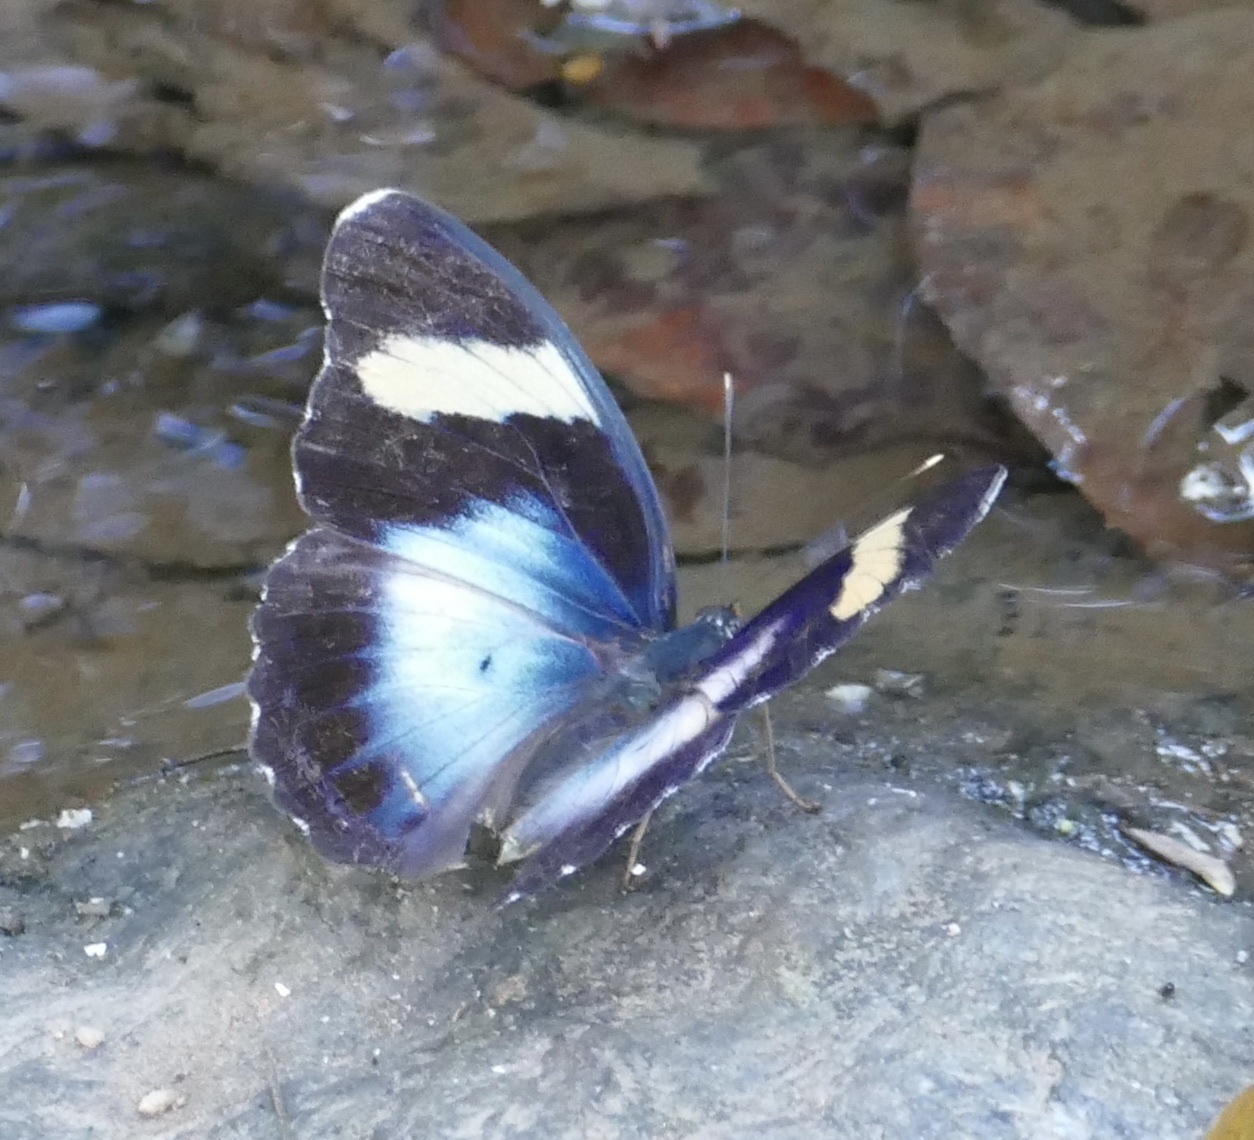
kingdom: Animalia
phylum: Arthropoda
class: Insecta
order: Lepidoptera
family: Nymphalidae
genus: Euphaedra
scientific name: Euphaedra ceres
